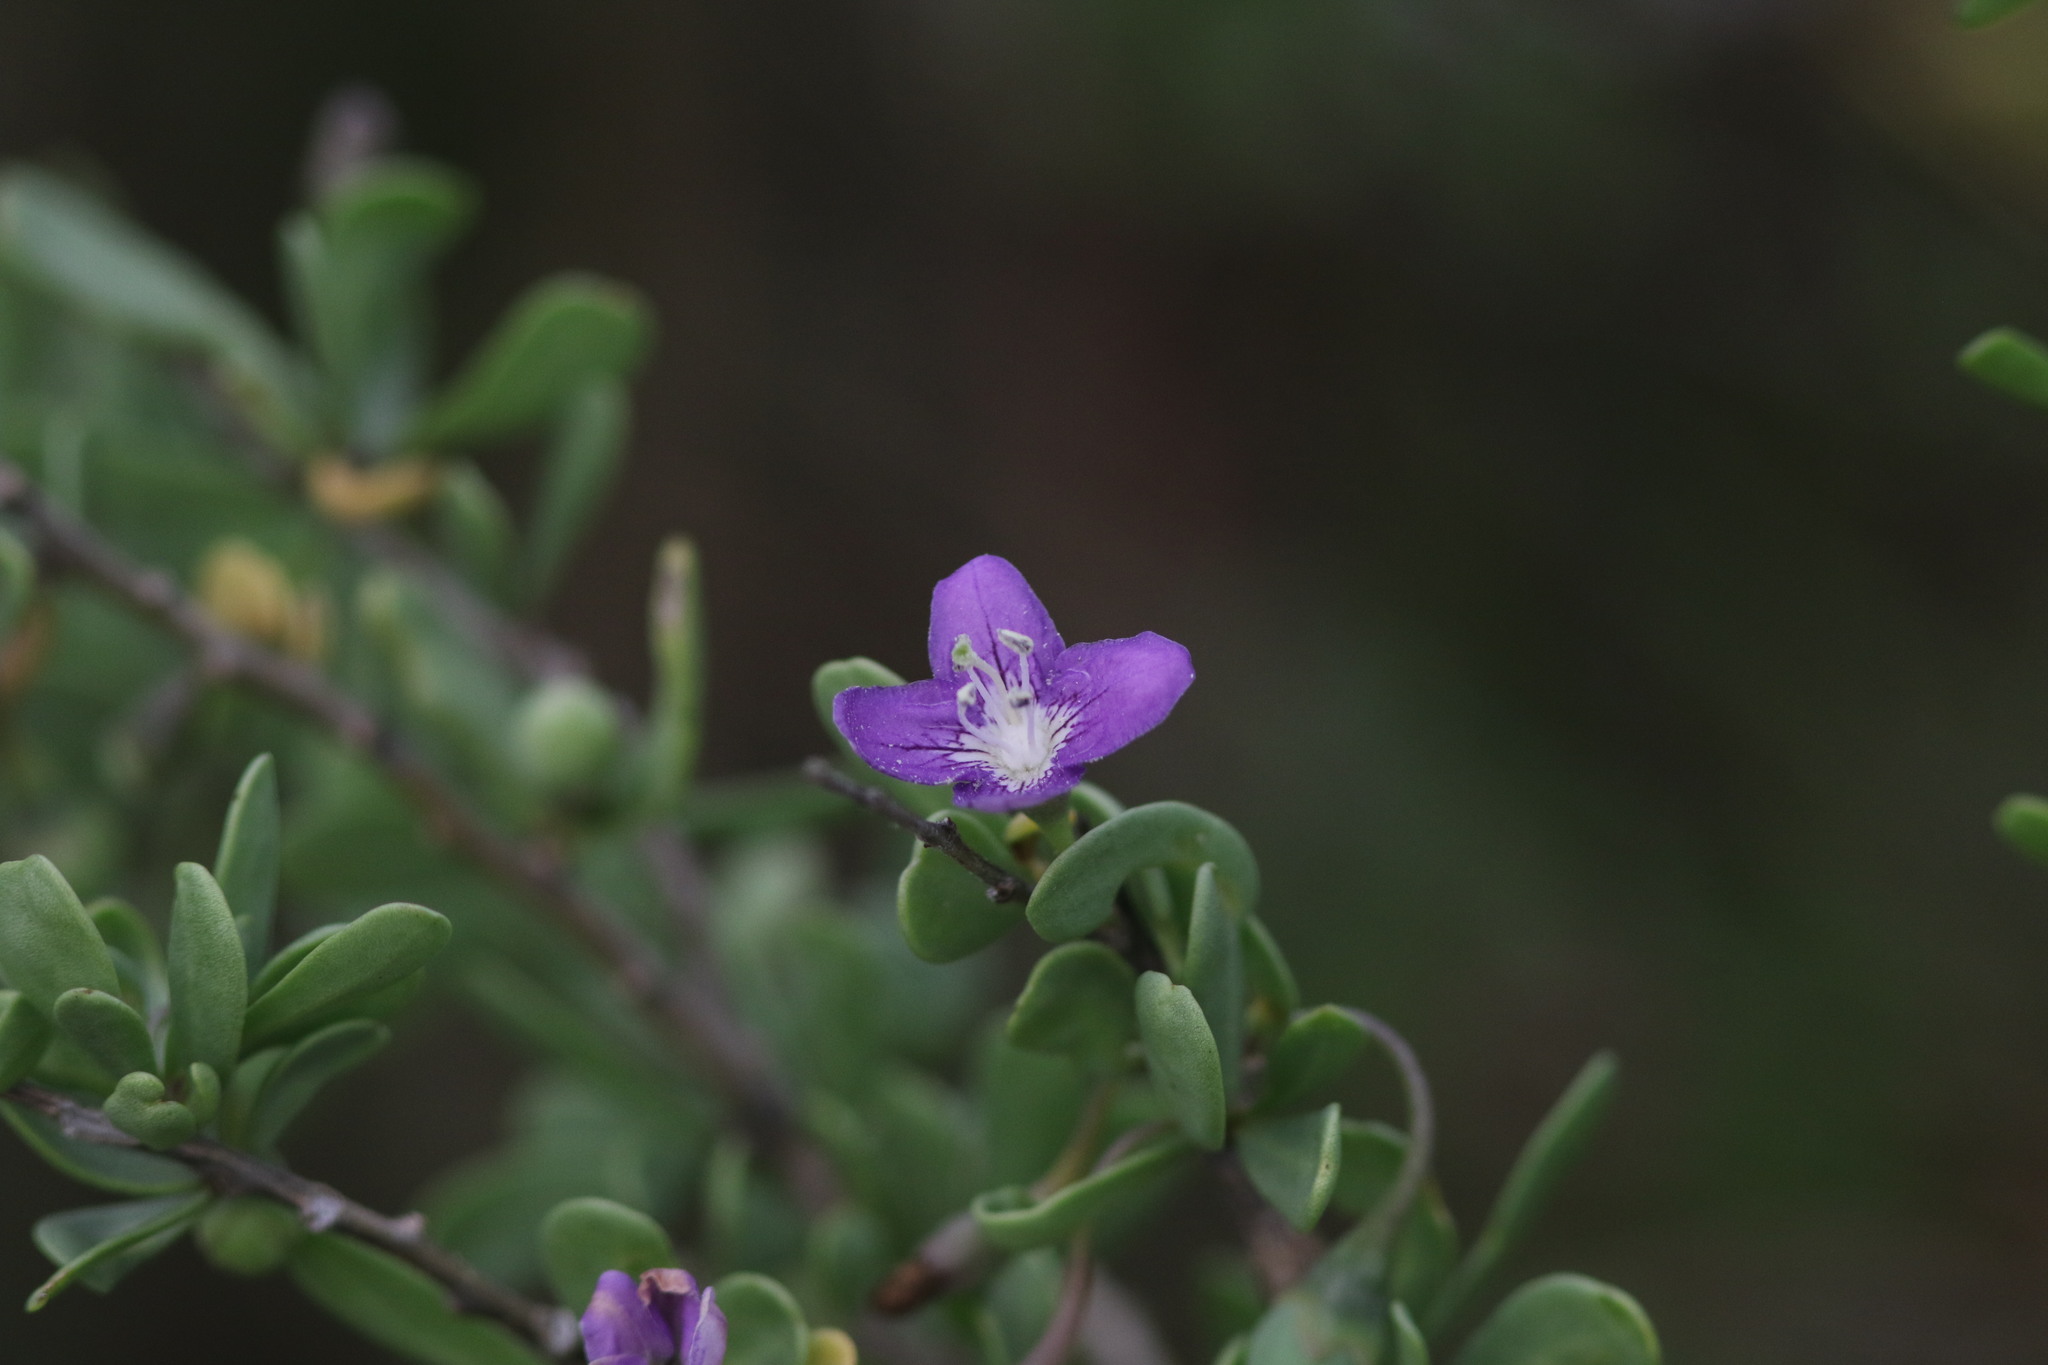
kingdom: Plantae
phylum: Tracheophyta
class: Magnoliopsida
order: Solanales
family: Solanaceae
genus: Lycium
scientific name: Lycium carolinianum
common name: Christmasberry
